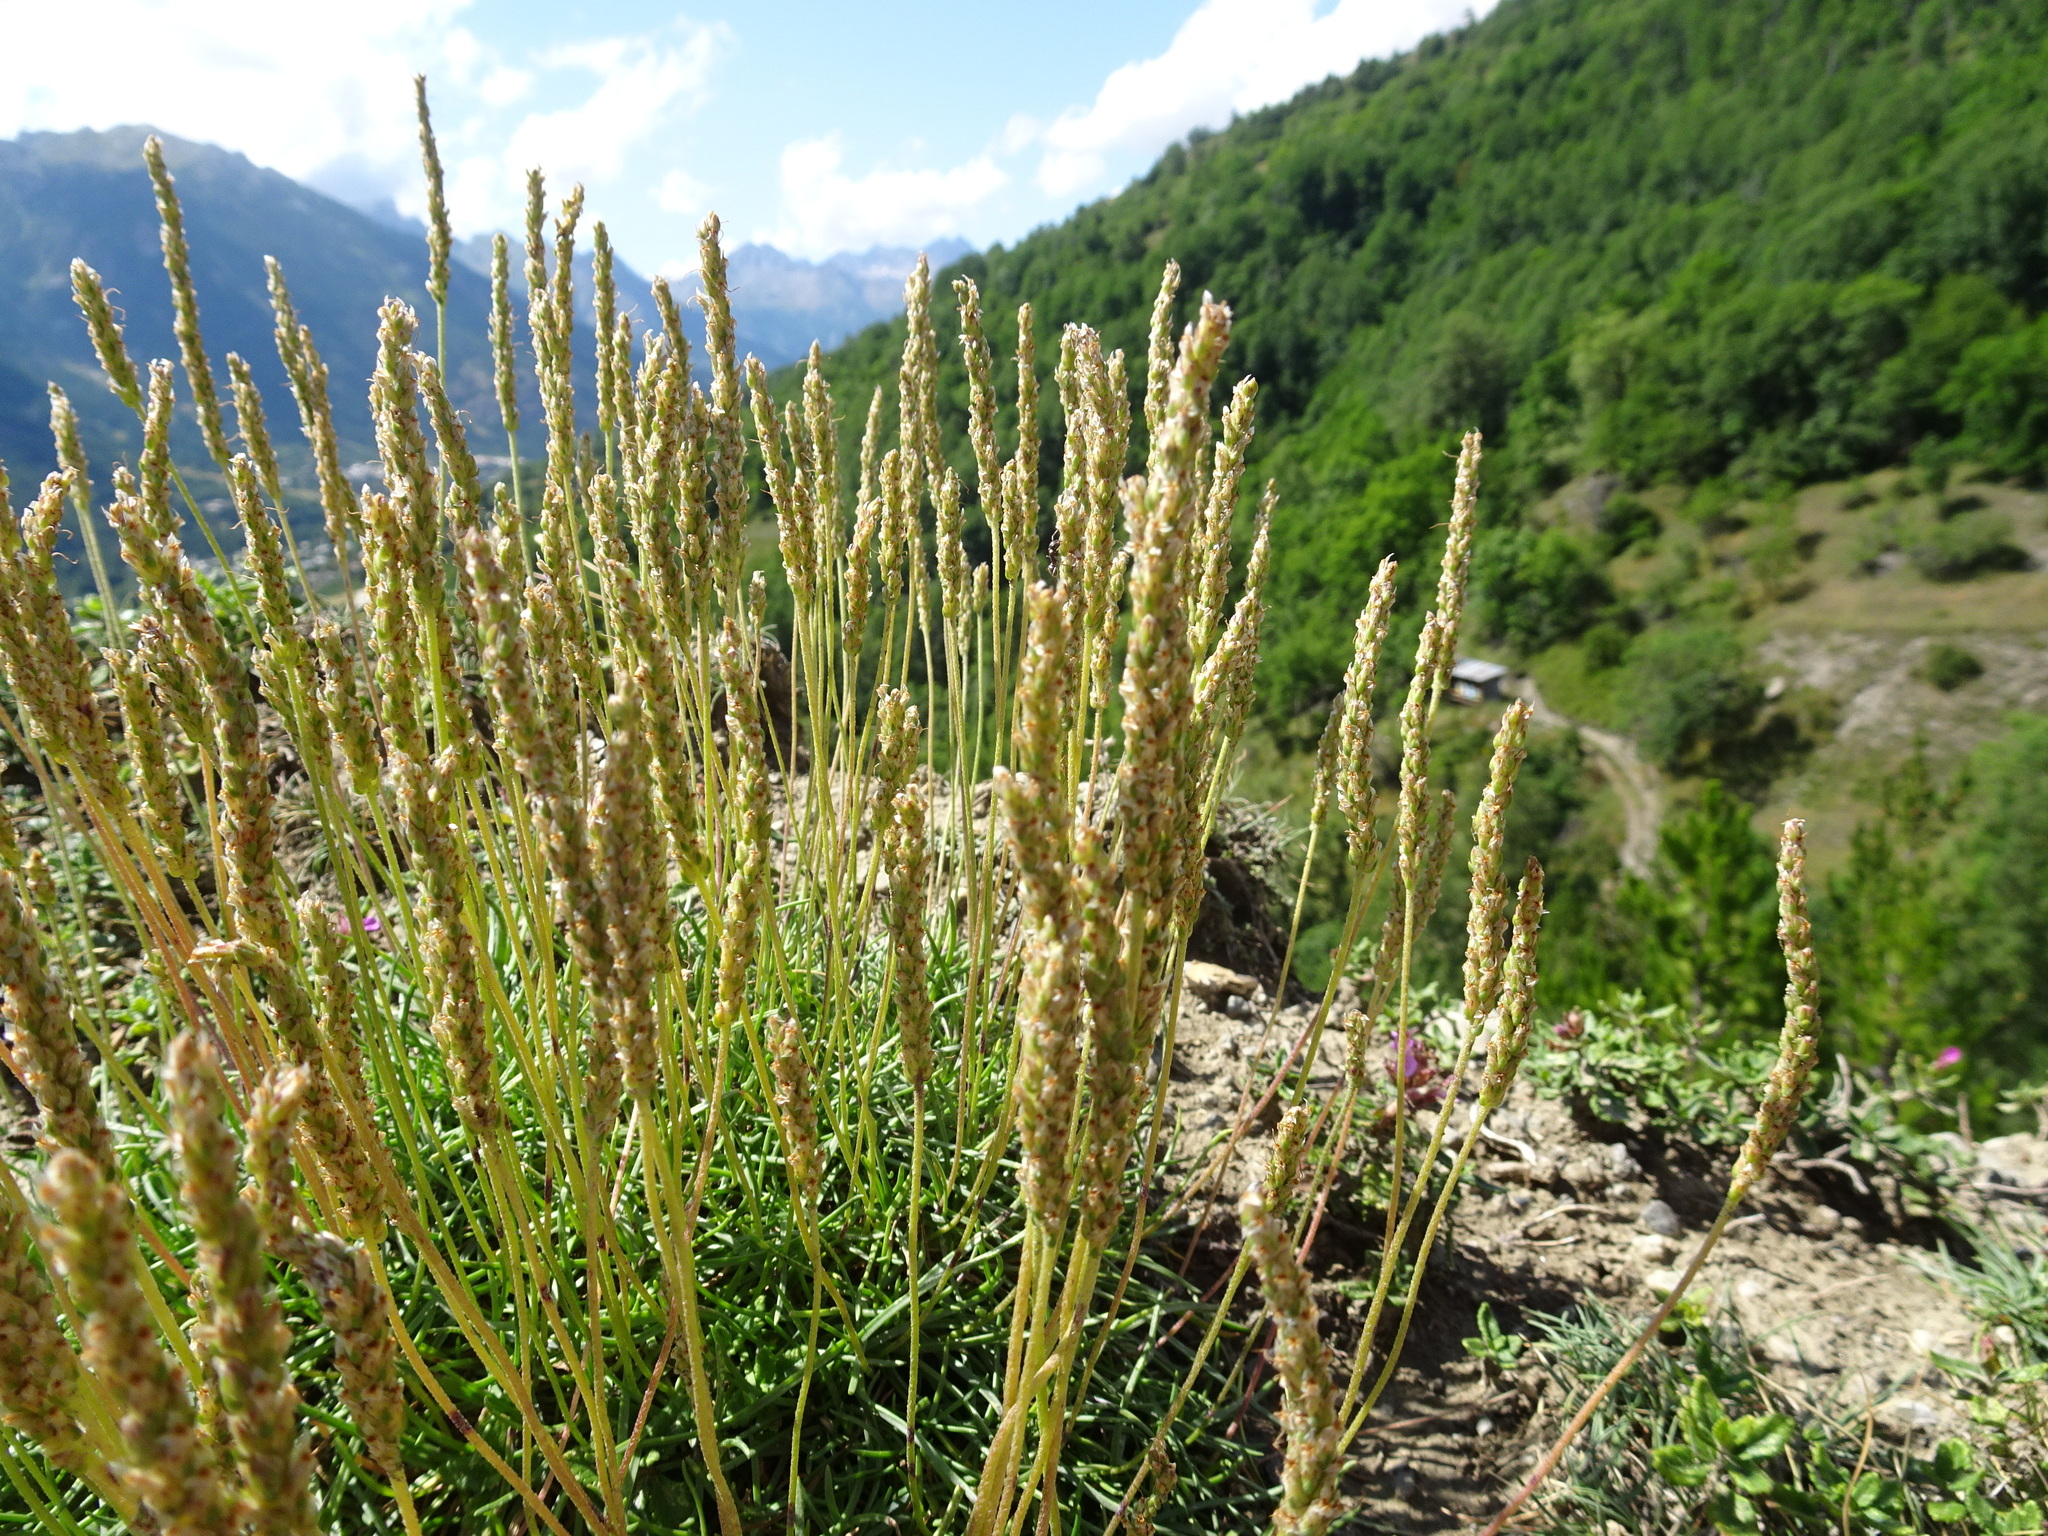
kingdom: Plantae
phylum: Tracheophyta
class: Magnoliopsida
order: Lamiales
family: Plantaginaceae
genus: Plantago
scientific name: Plantago maritima
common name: Sea plantain
